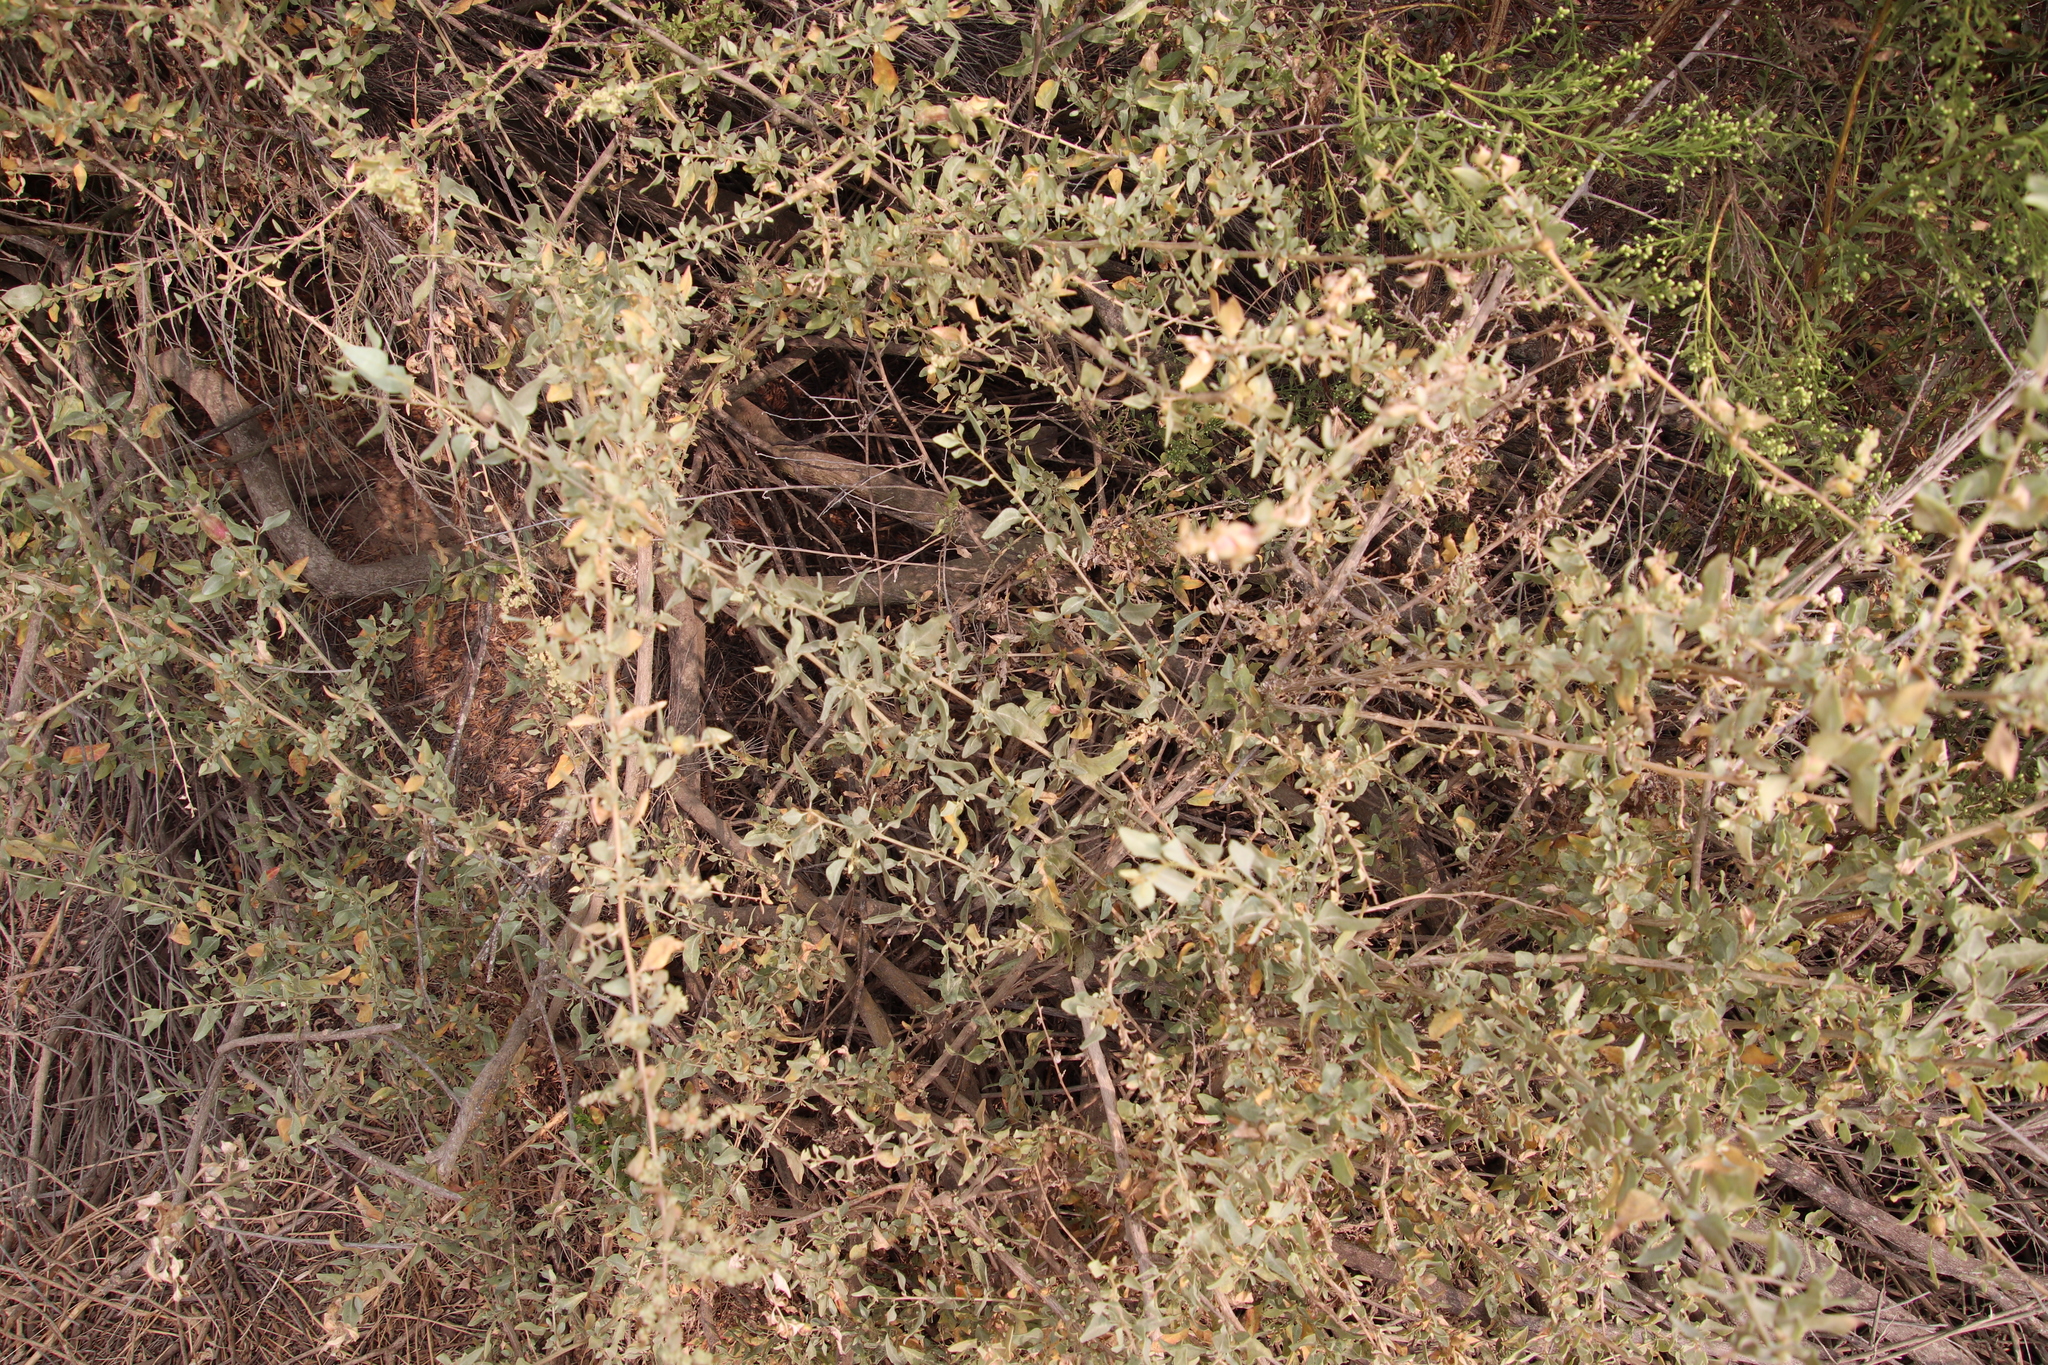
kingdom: Plantae
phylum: Tracheophyta
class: Magnoliopsida
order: Caryophyllales
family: Amaranthaceae
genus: Atriplex
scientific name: Atriplex lentiformis
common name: Big saltbush
